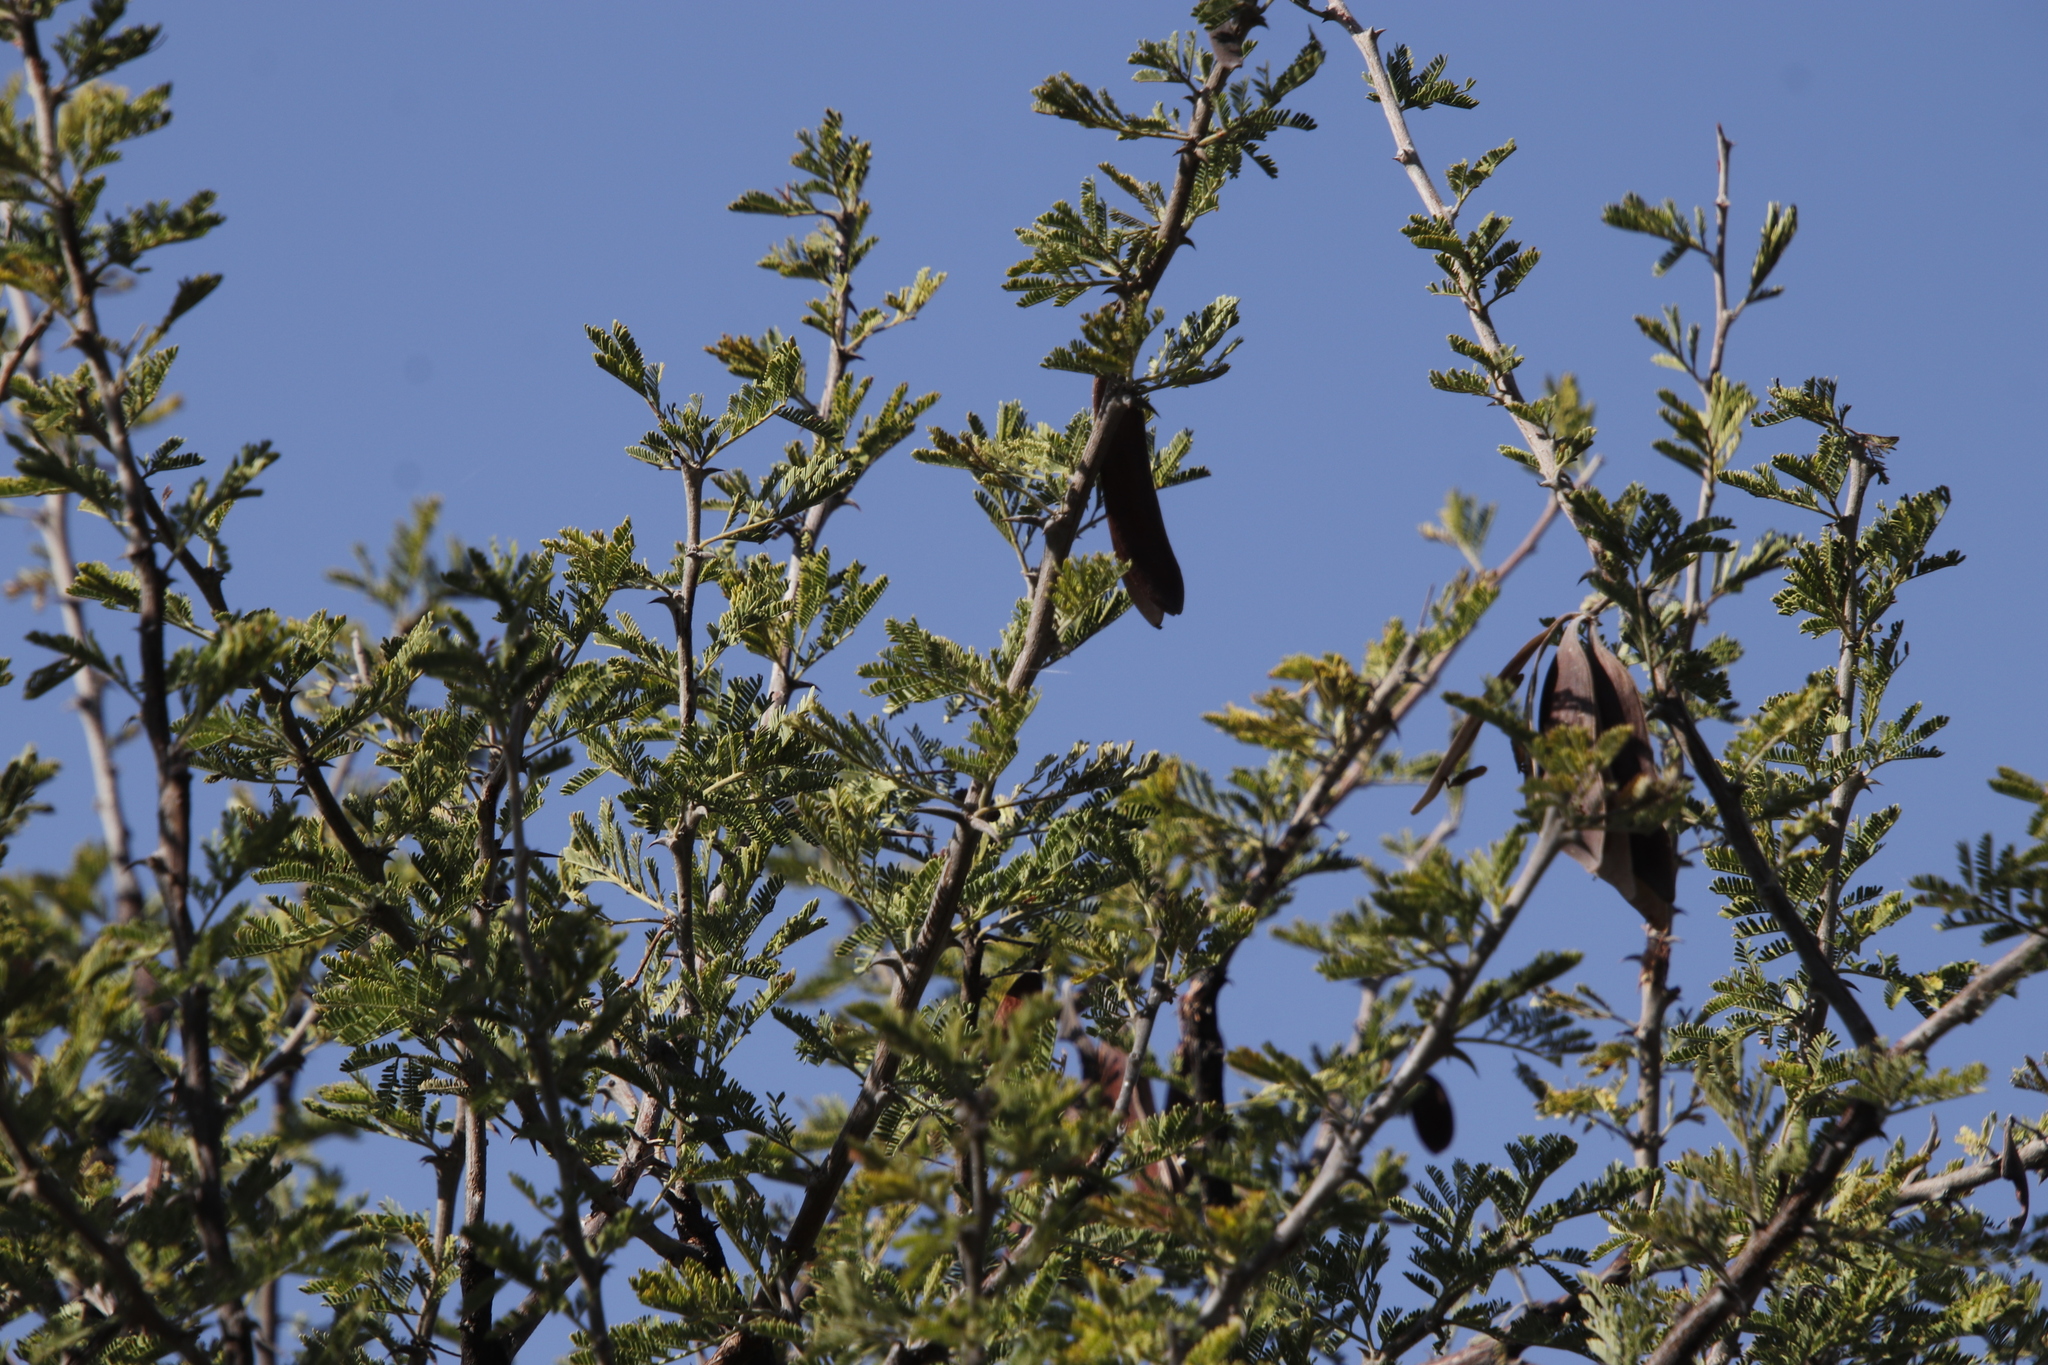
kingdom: Plantae
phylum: Tracheophyta
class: Magnoliopsida
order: Fabales
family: Fabaceae
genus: Vachellia
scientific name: Vachellia luederitzii
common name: Bastard umbrella thorn
